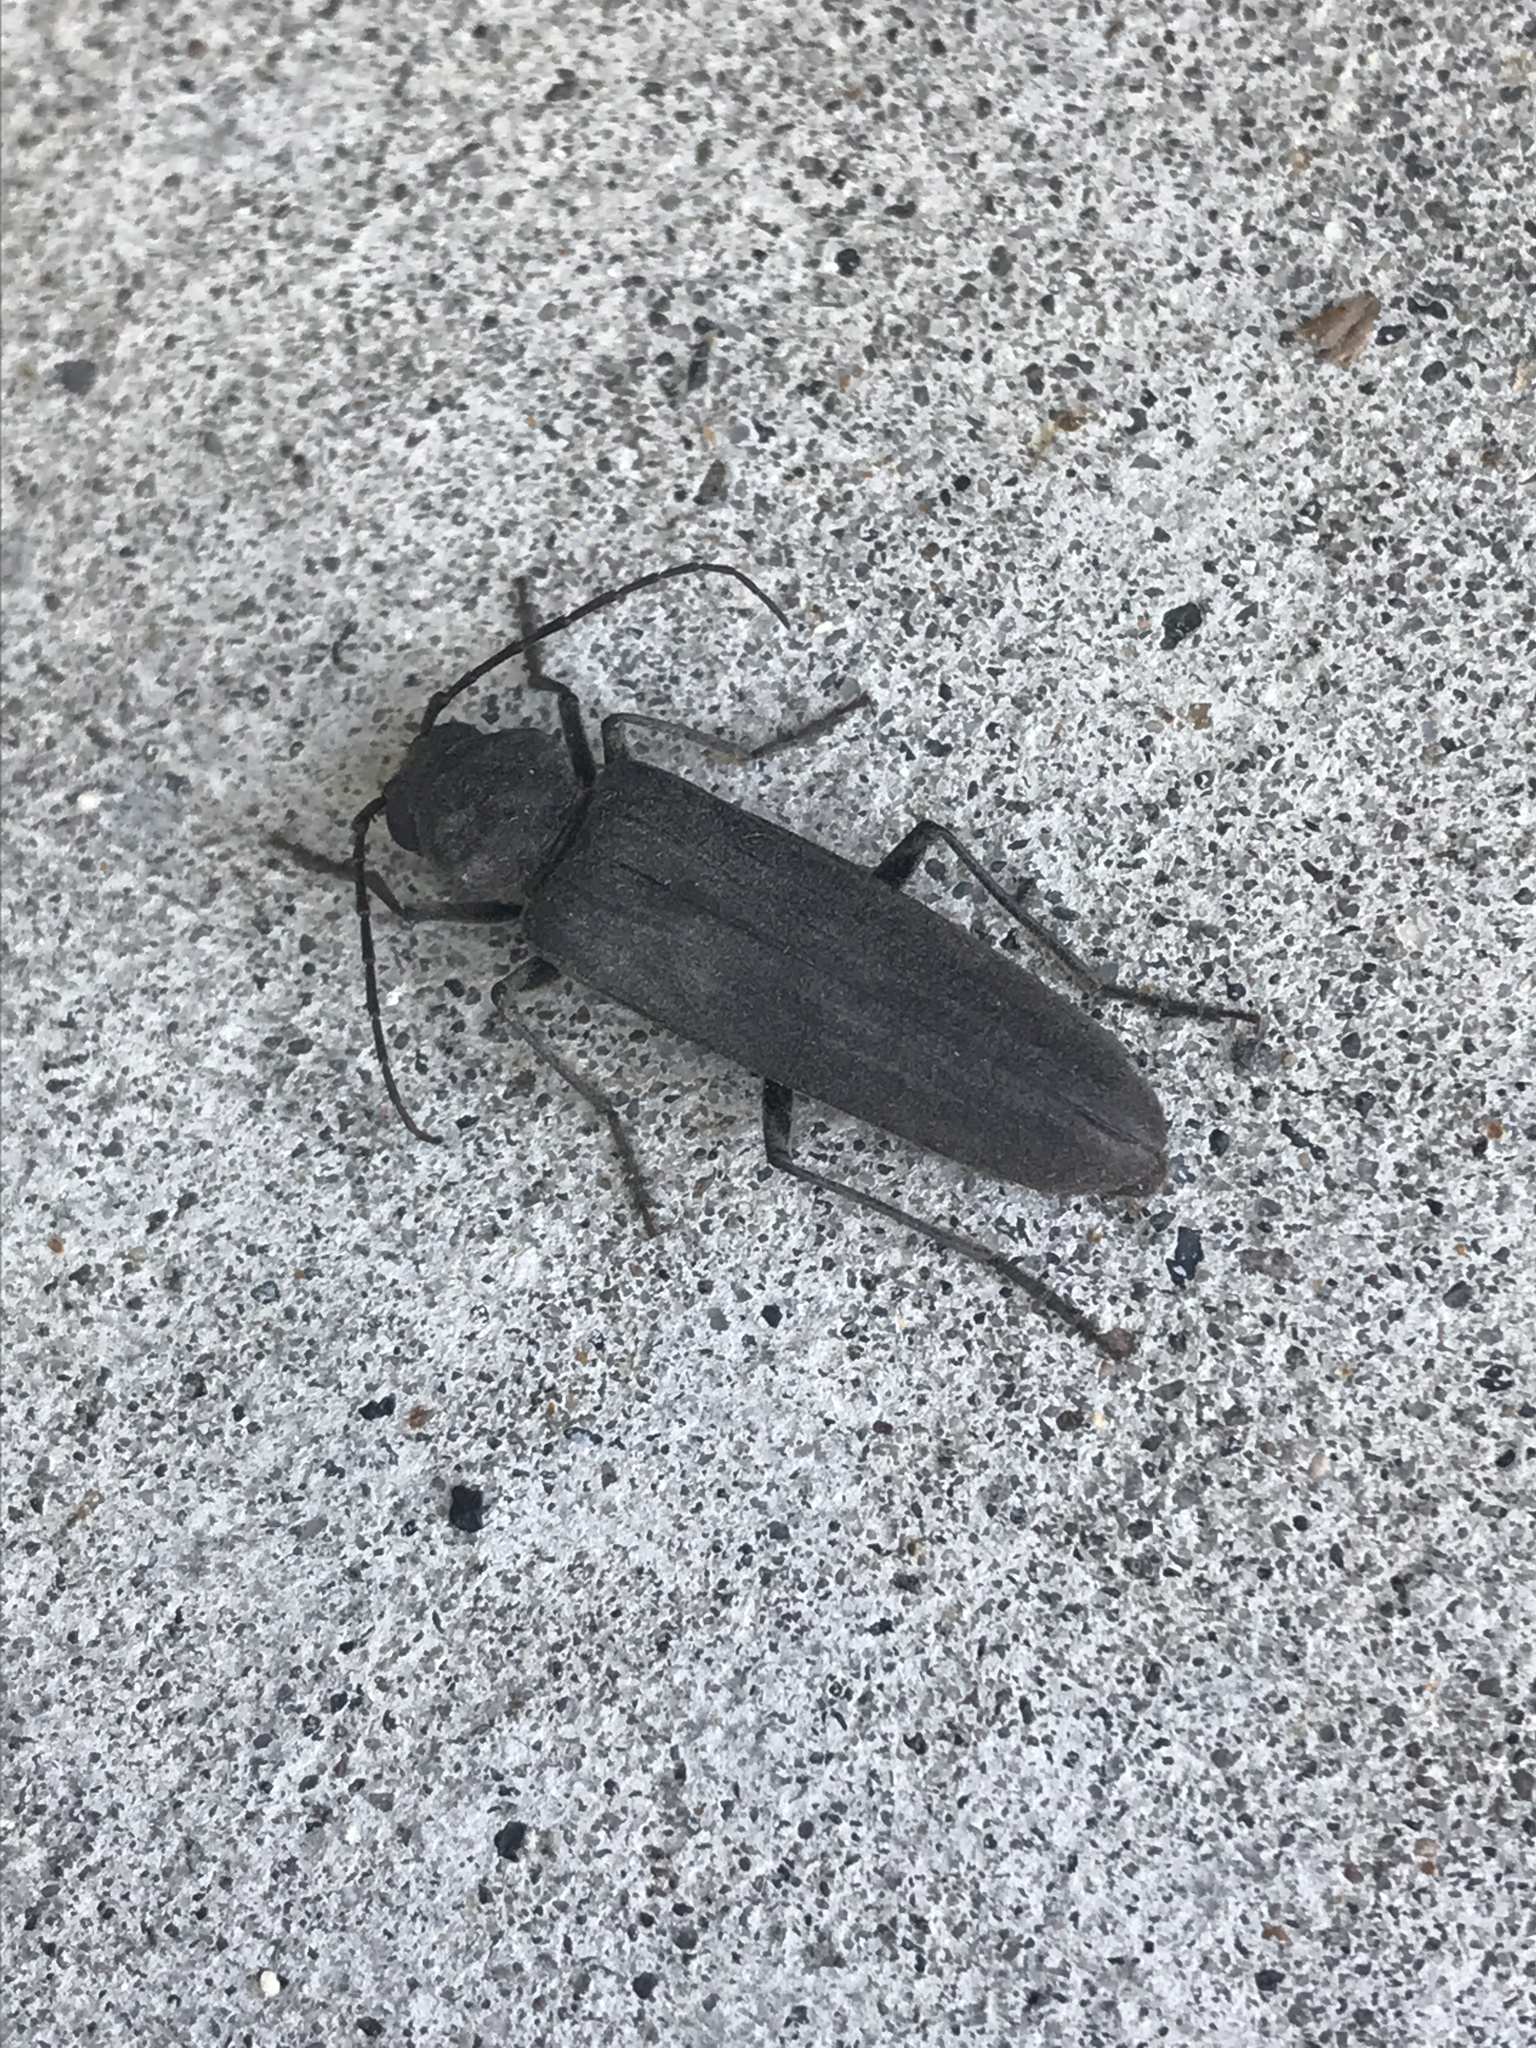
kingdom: Animalia
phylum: Arthropoda
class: Insecta
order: Coleoptera
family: Cerambycidae
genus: Arhopalus
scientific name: Arhopalus asperatus
